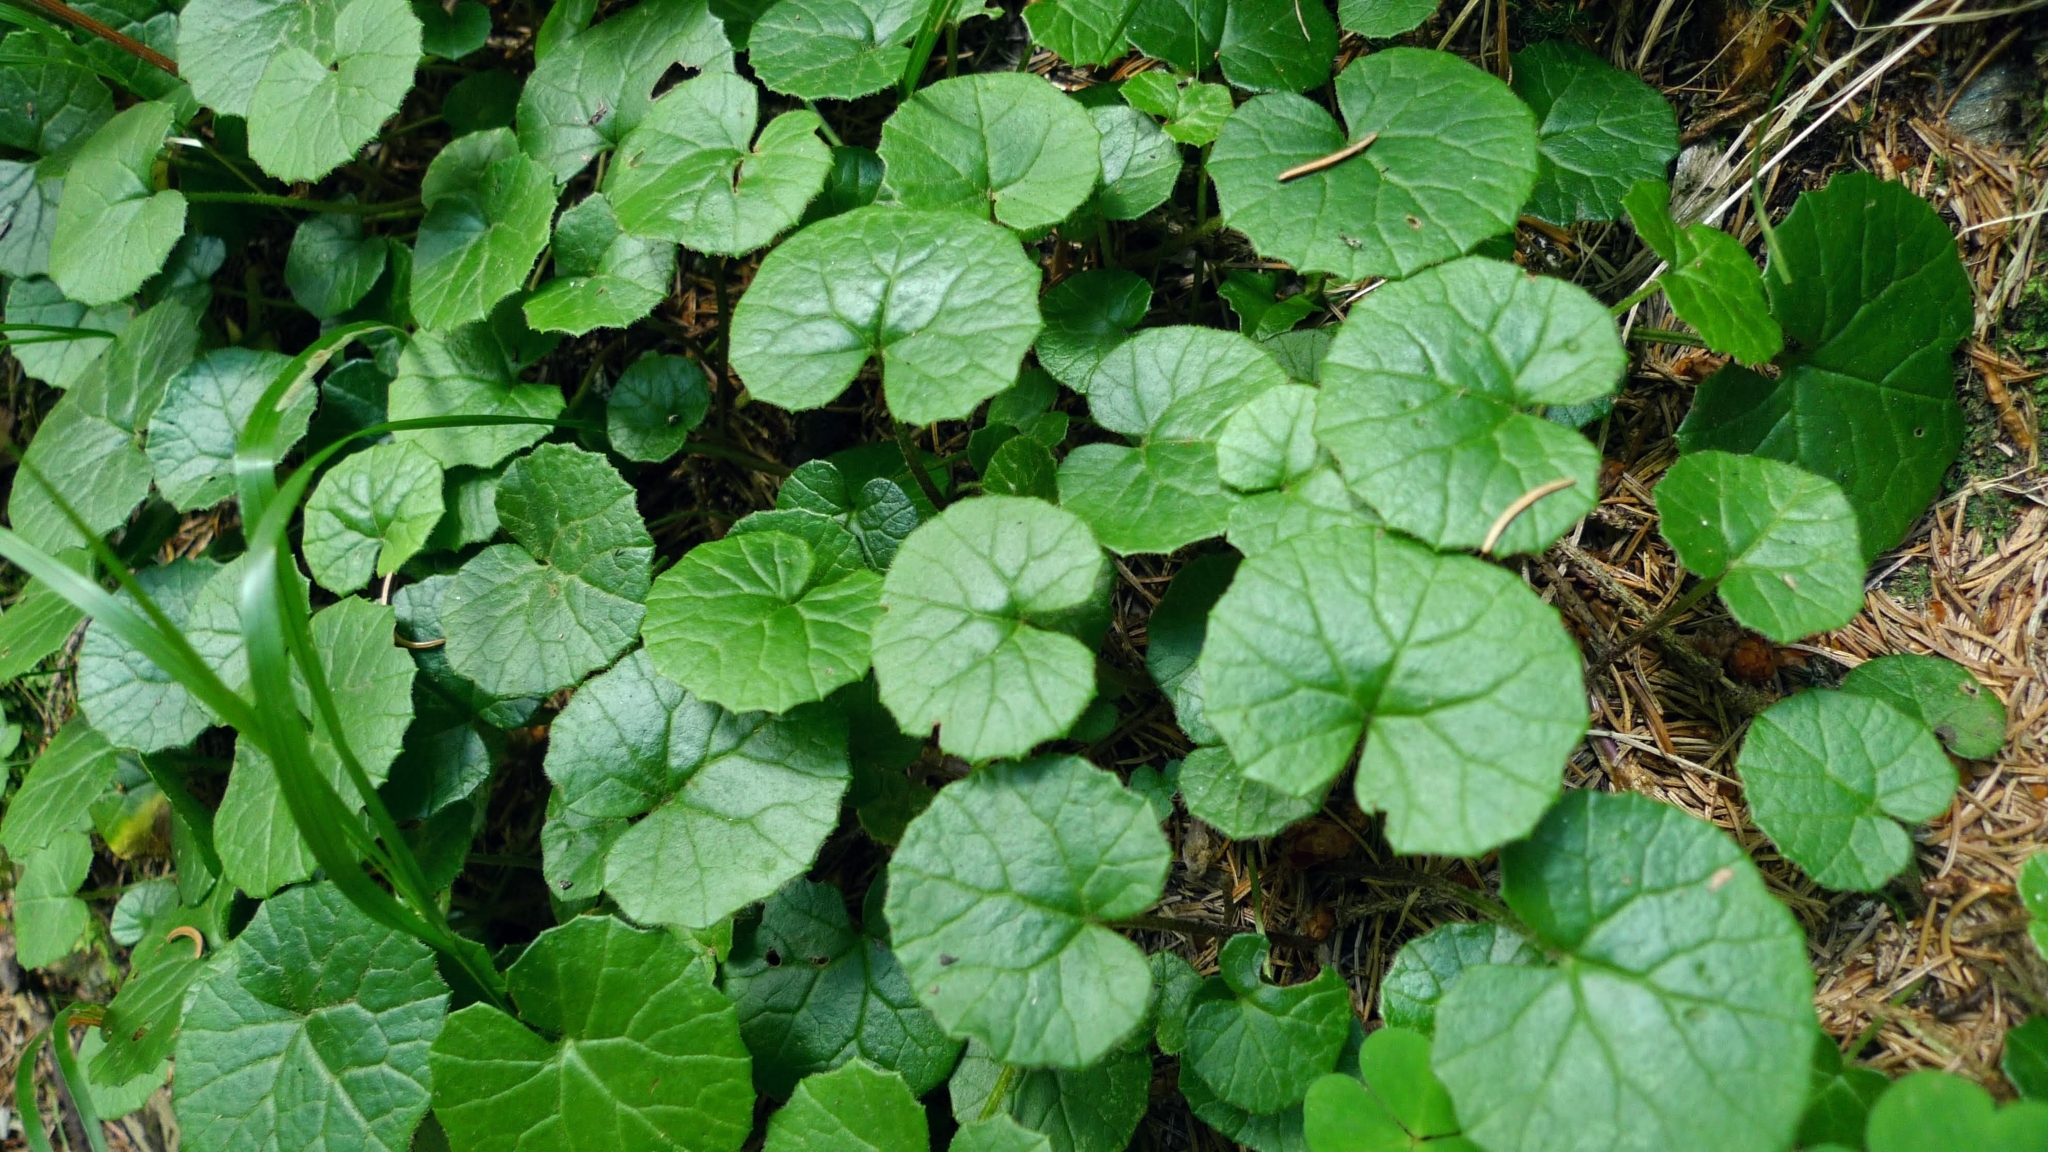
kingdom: Plantae
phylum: Tracheophyta
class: Magnoliopsida
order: Asterales
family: Asteraceae
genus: Homogyne
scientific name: Homogyne alpina
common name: Purple colt's-foot
